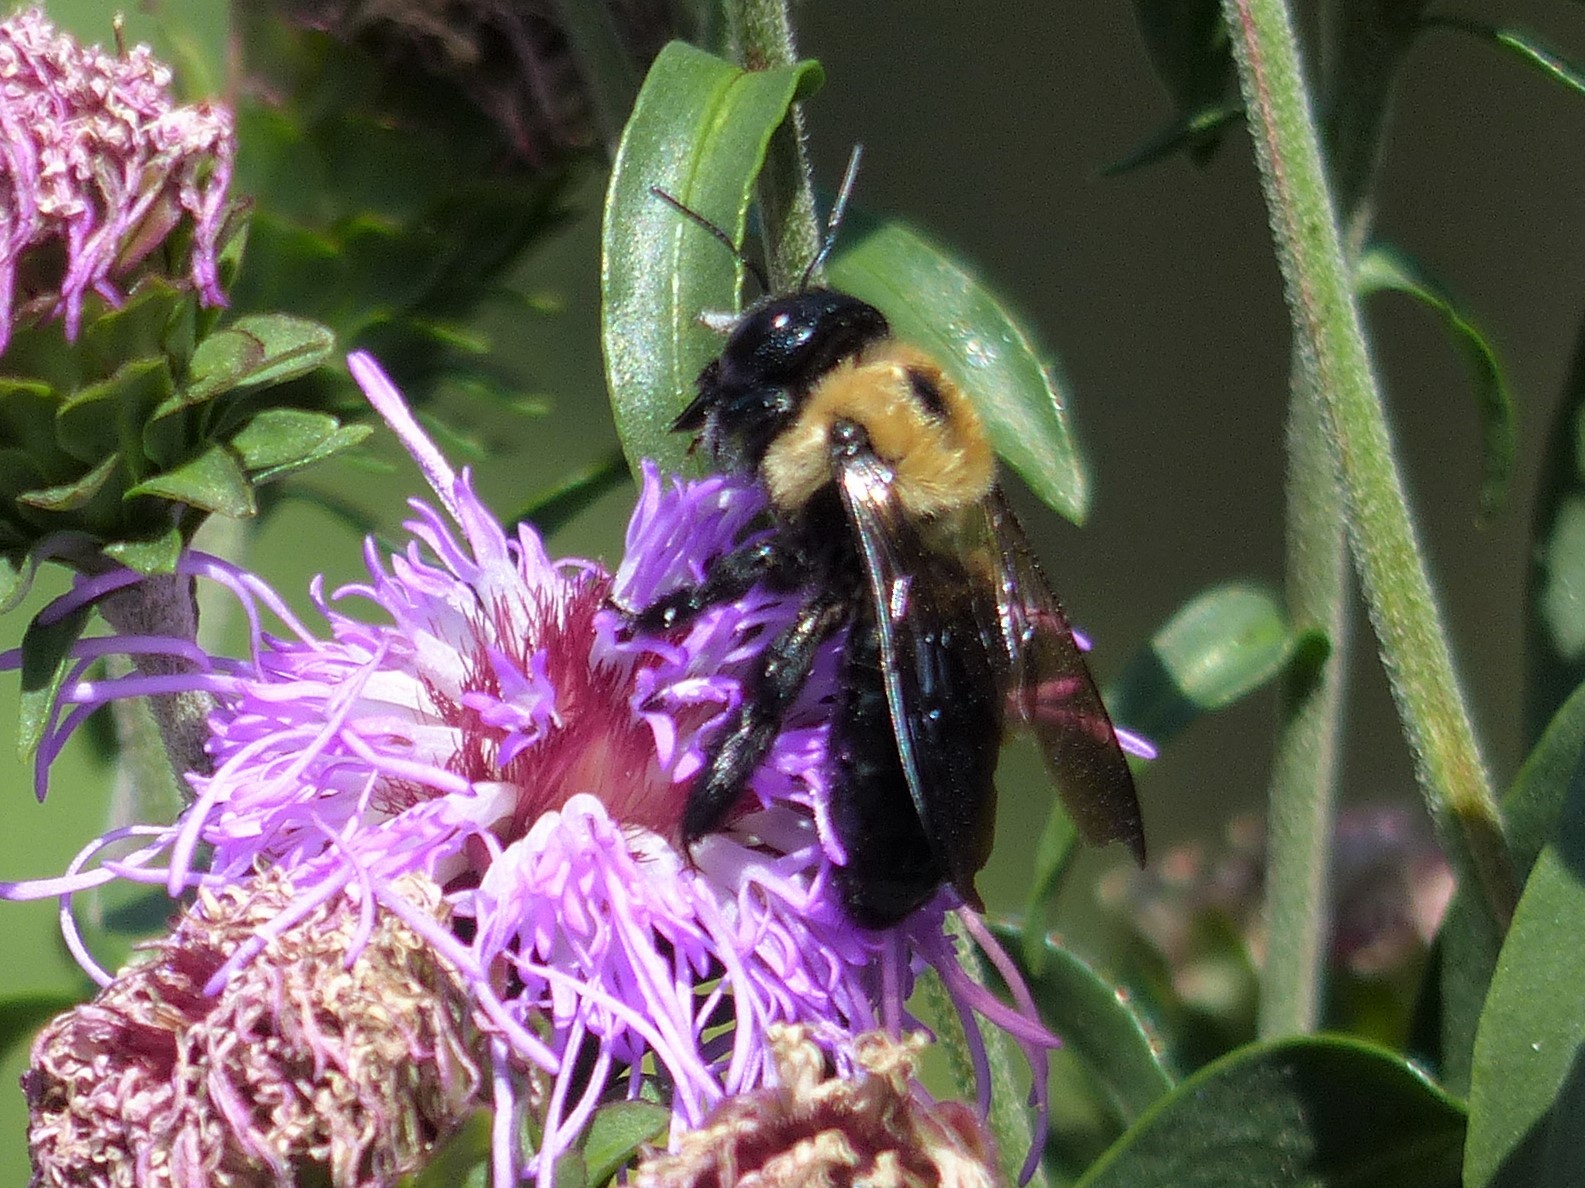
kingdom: Animalia
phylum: Arthropoda
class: Insecta
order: Hymenoptera
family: Apidae
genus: Xylocopa
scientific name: Xylocopa virginica
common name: Carpenter bee
